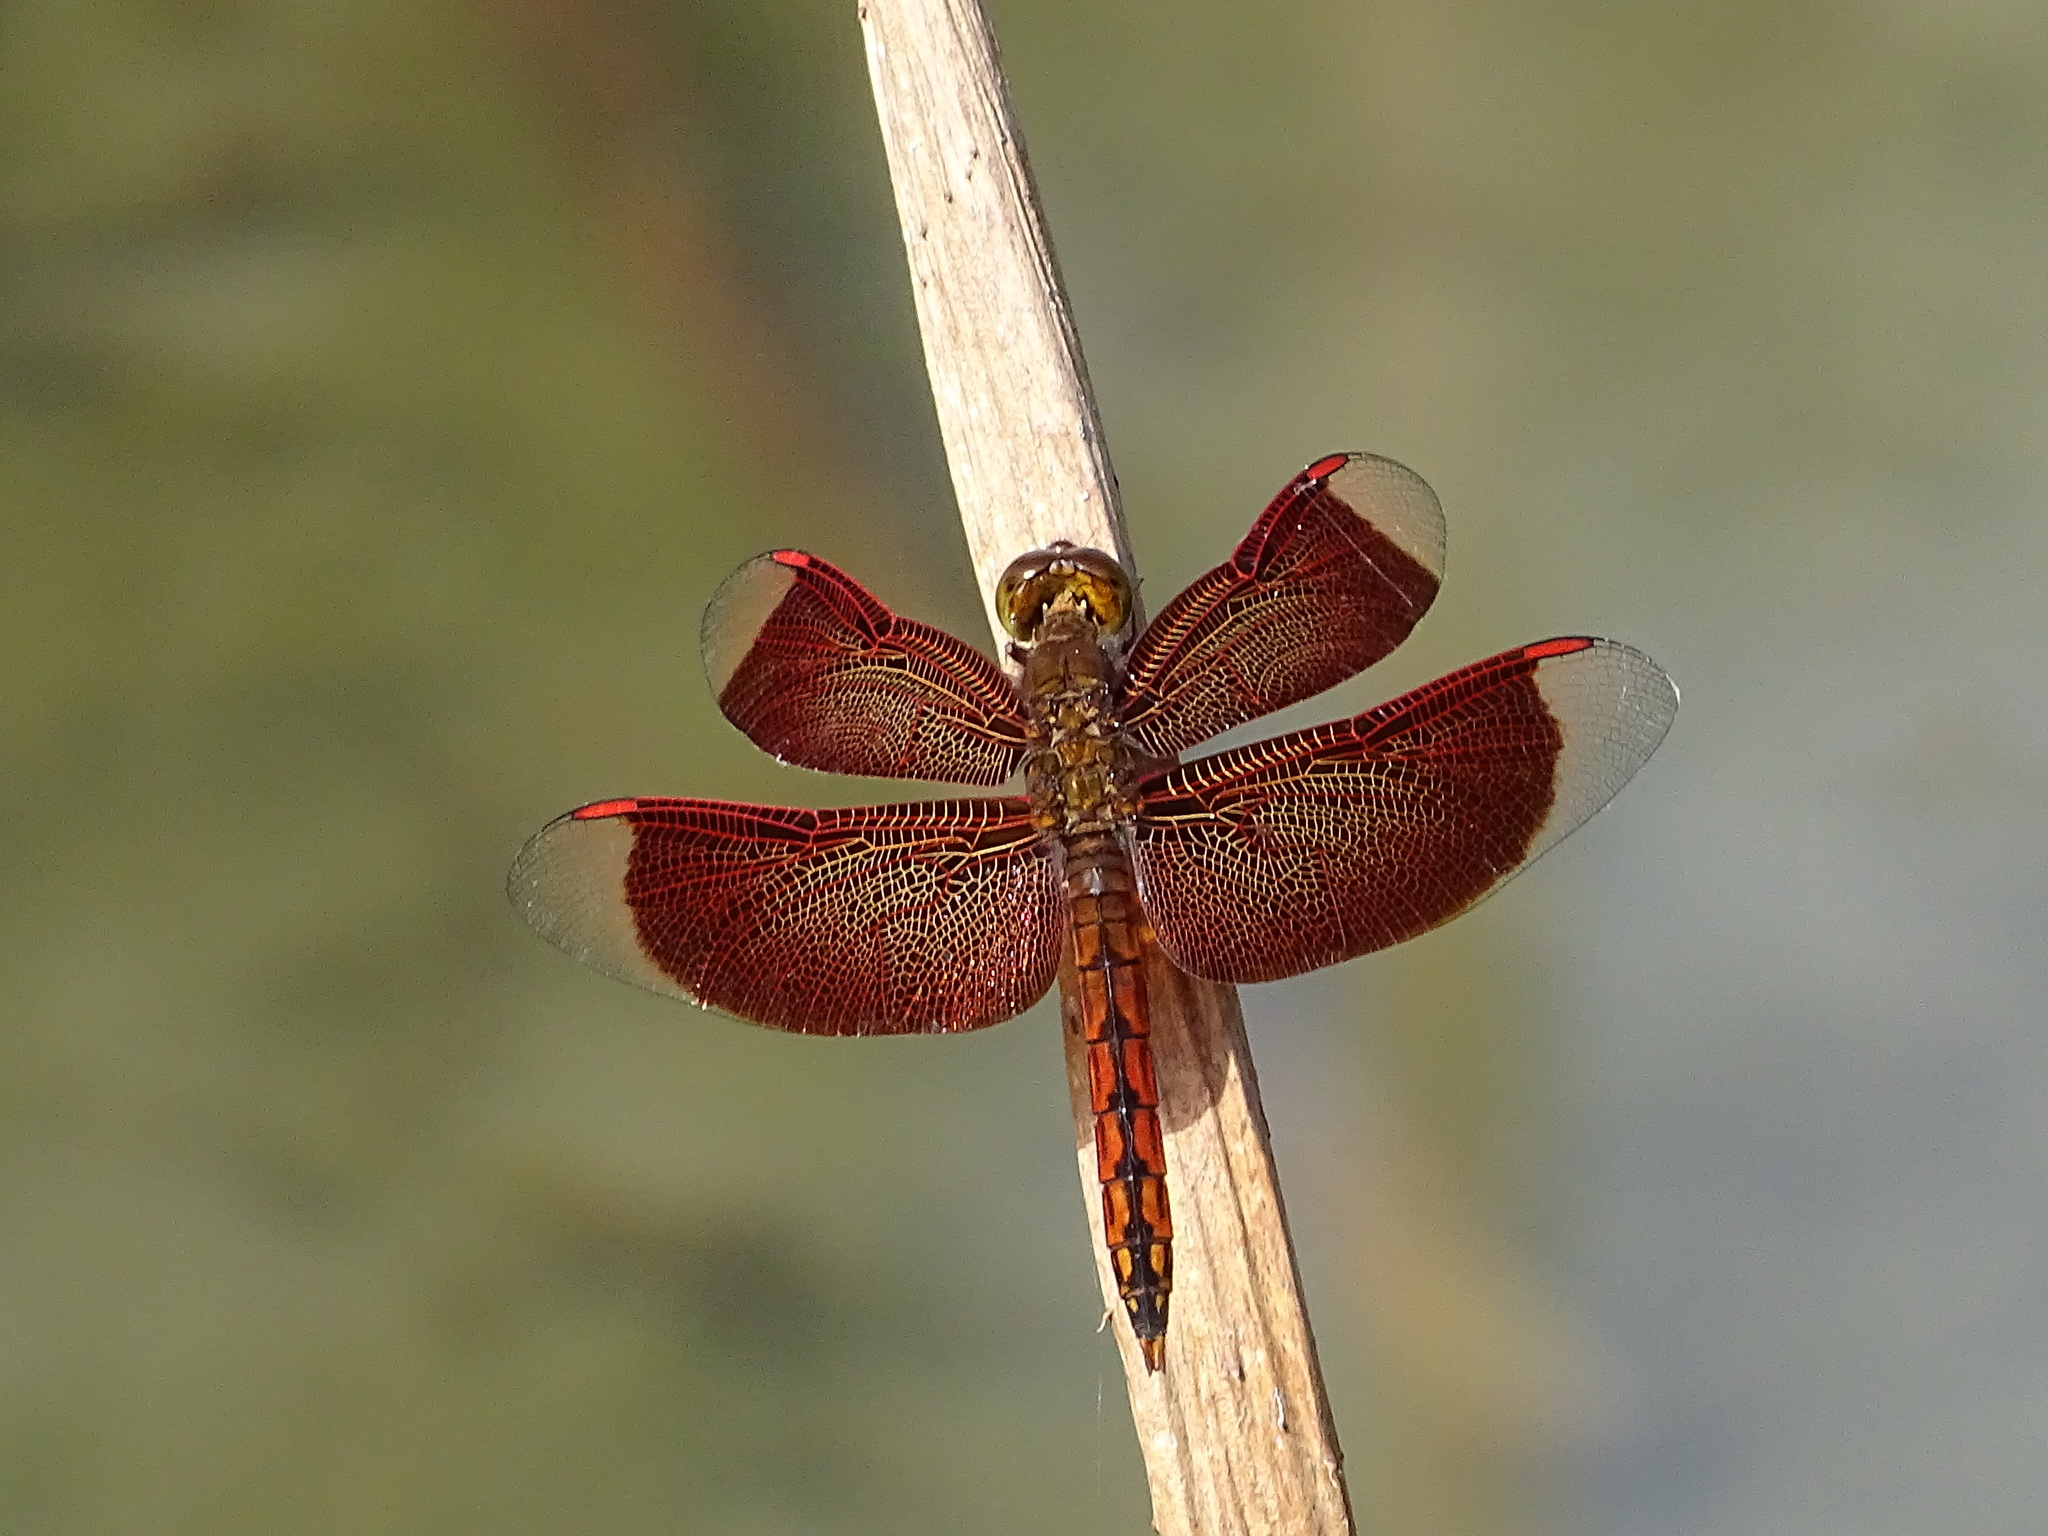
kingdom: Animalia
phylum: Arthropoda
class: Insecta
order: Odonata
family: Libellulidae
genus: Neurothemis
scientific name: Neurothemis taiwanensis
